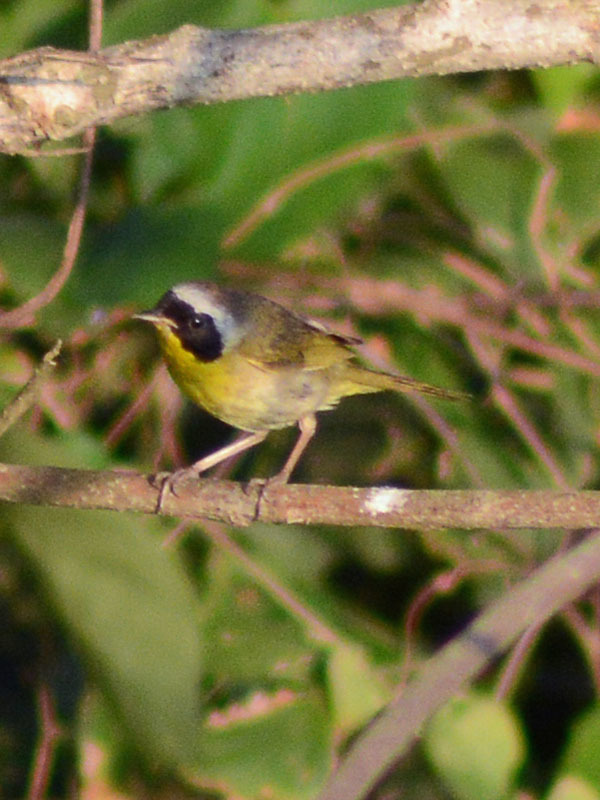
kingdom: Animalia
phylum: Chordata
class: Aves
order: Passeriformes
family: Parulidae
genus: Geothlypis
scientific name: Geothlypis trichas
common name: Common yellowthroat
